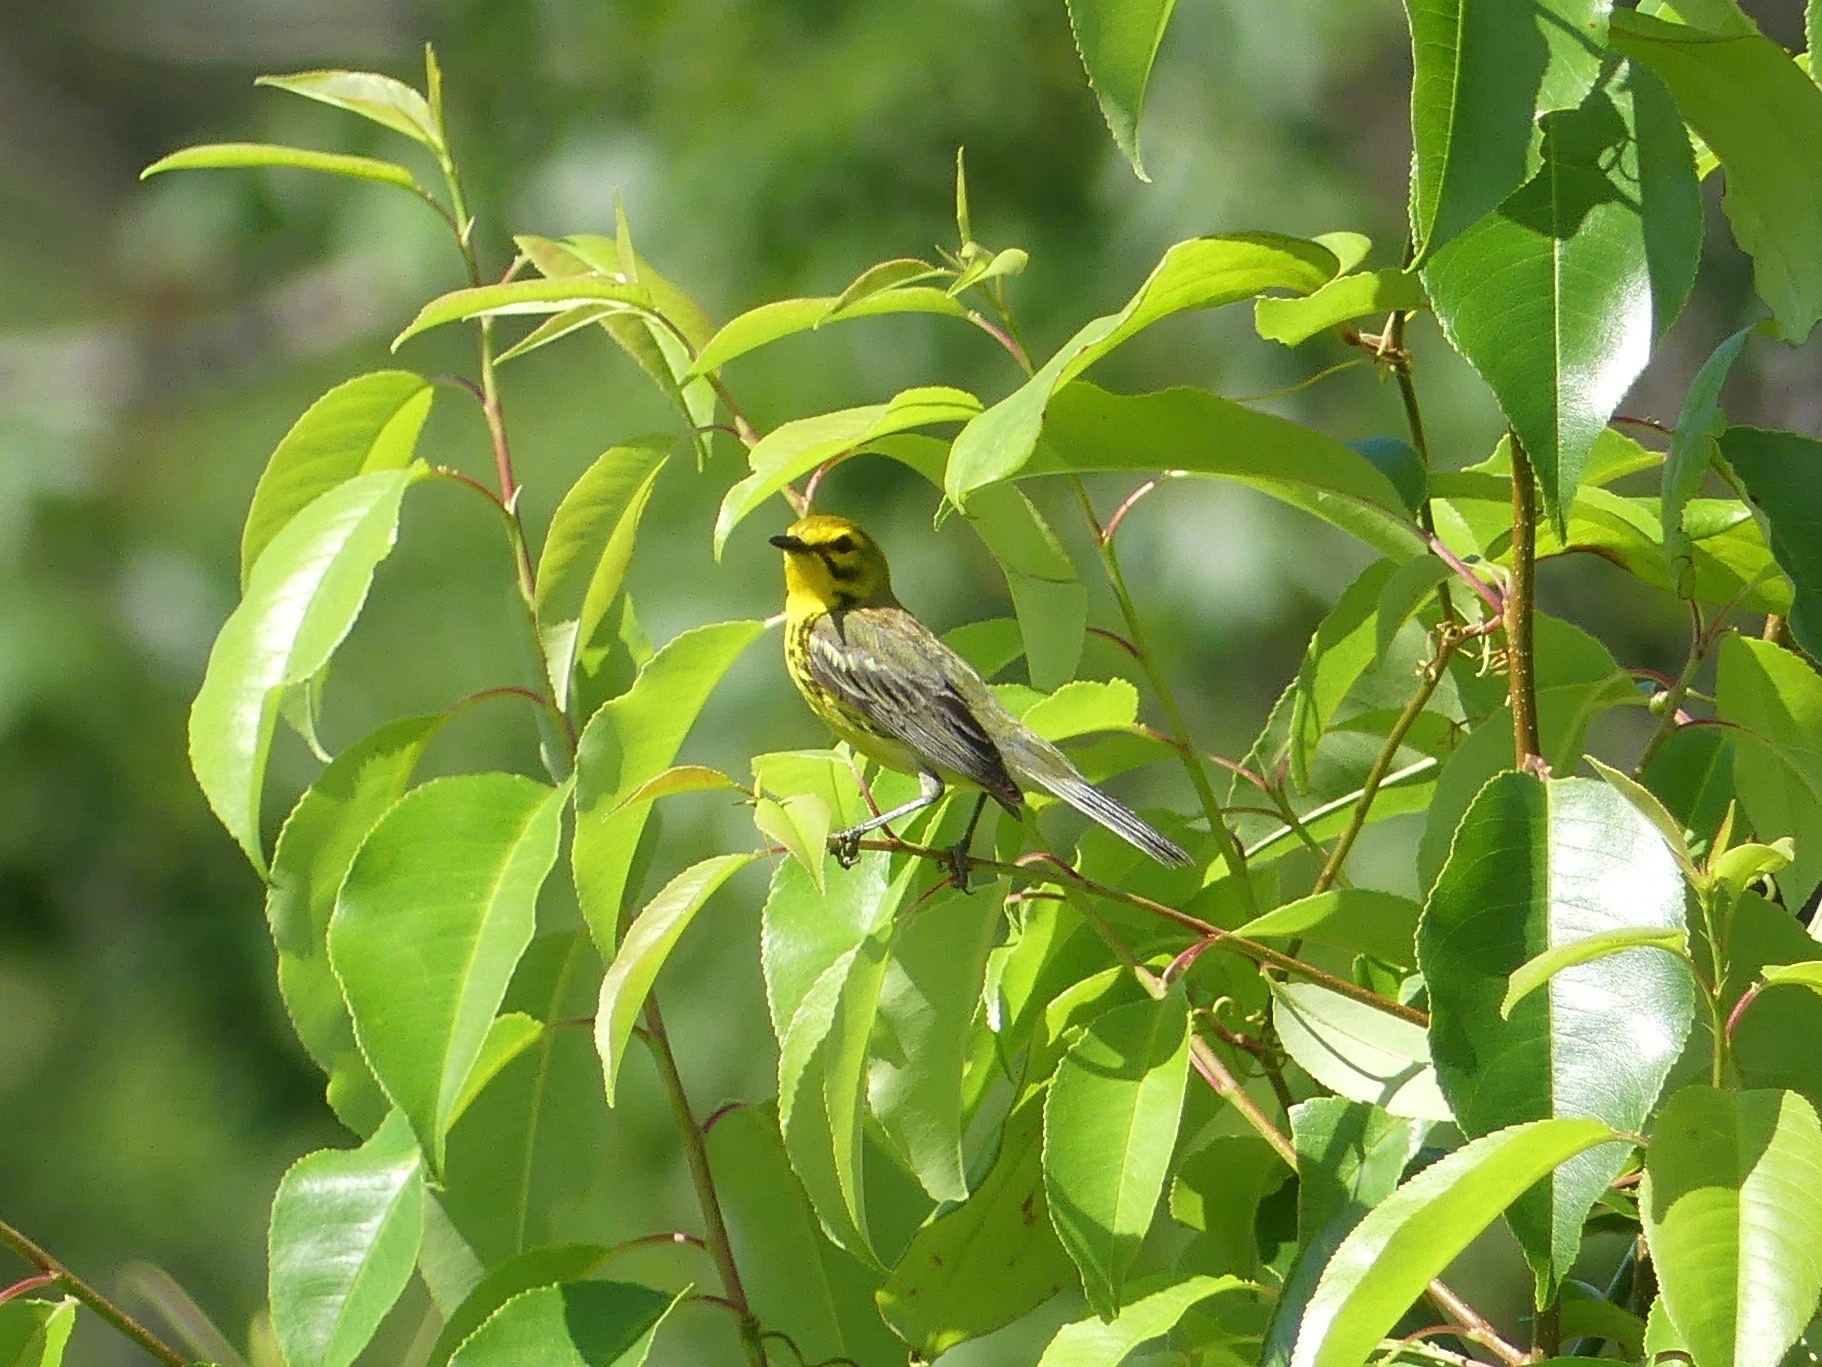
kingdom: Animalia
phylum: Chordata
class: Aves
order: Passeriformes
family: Parulidae
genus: Setophaga
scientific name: Setophaga discolor
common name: Prairie warbler
